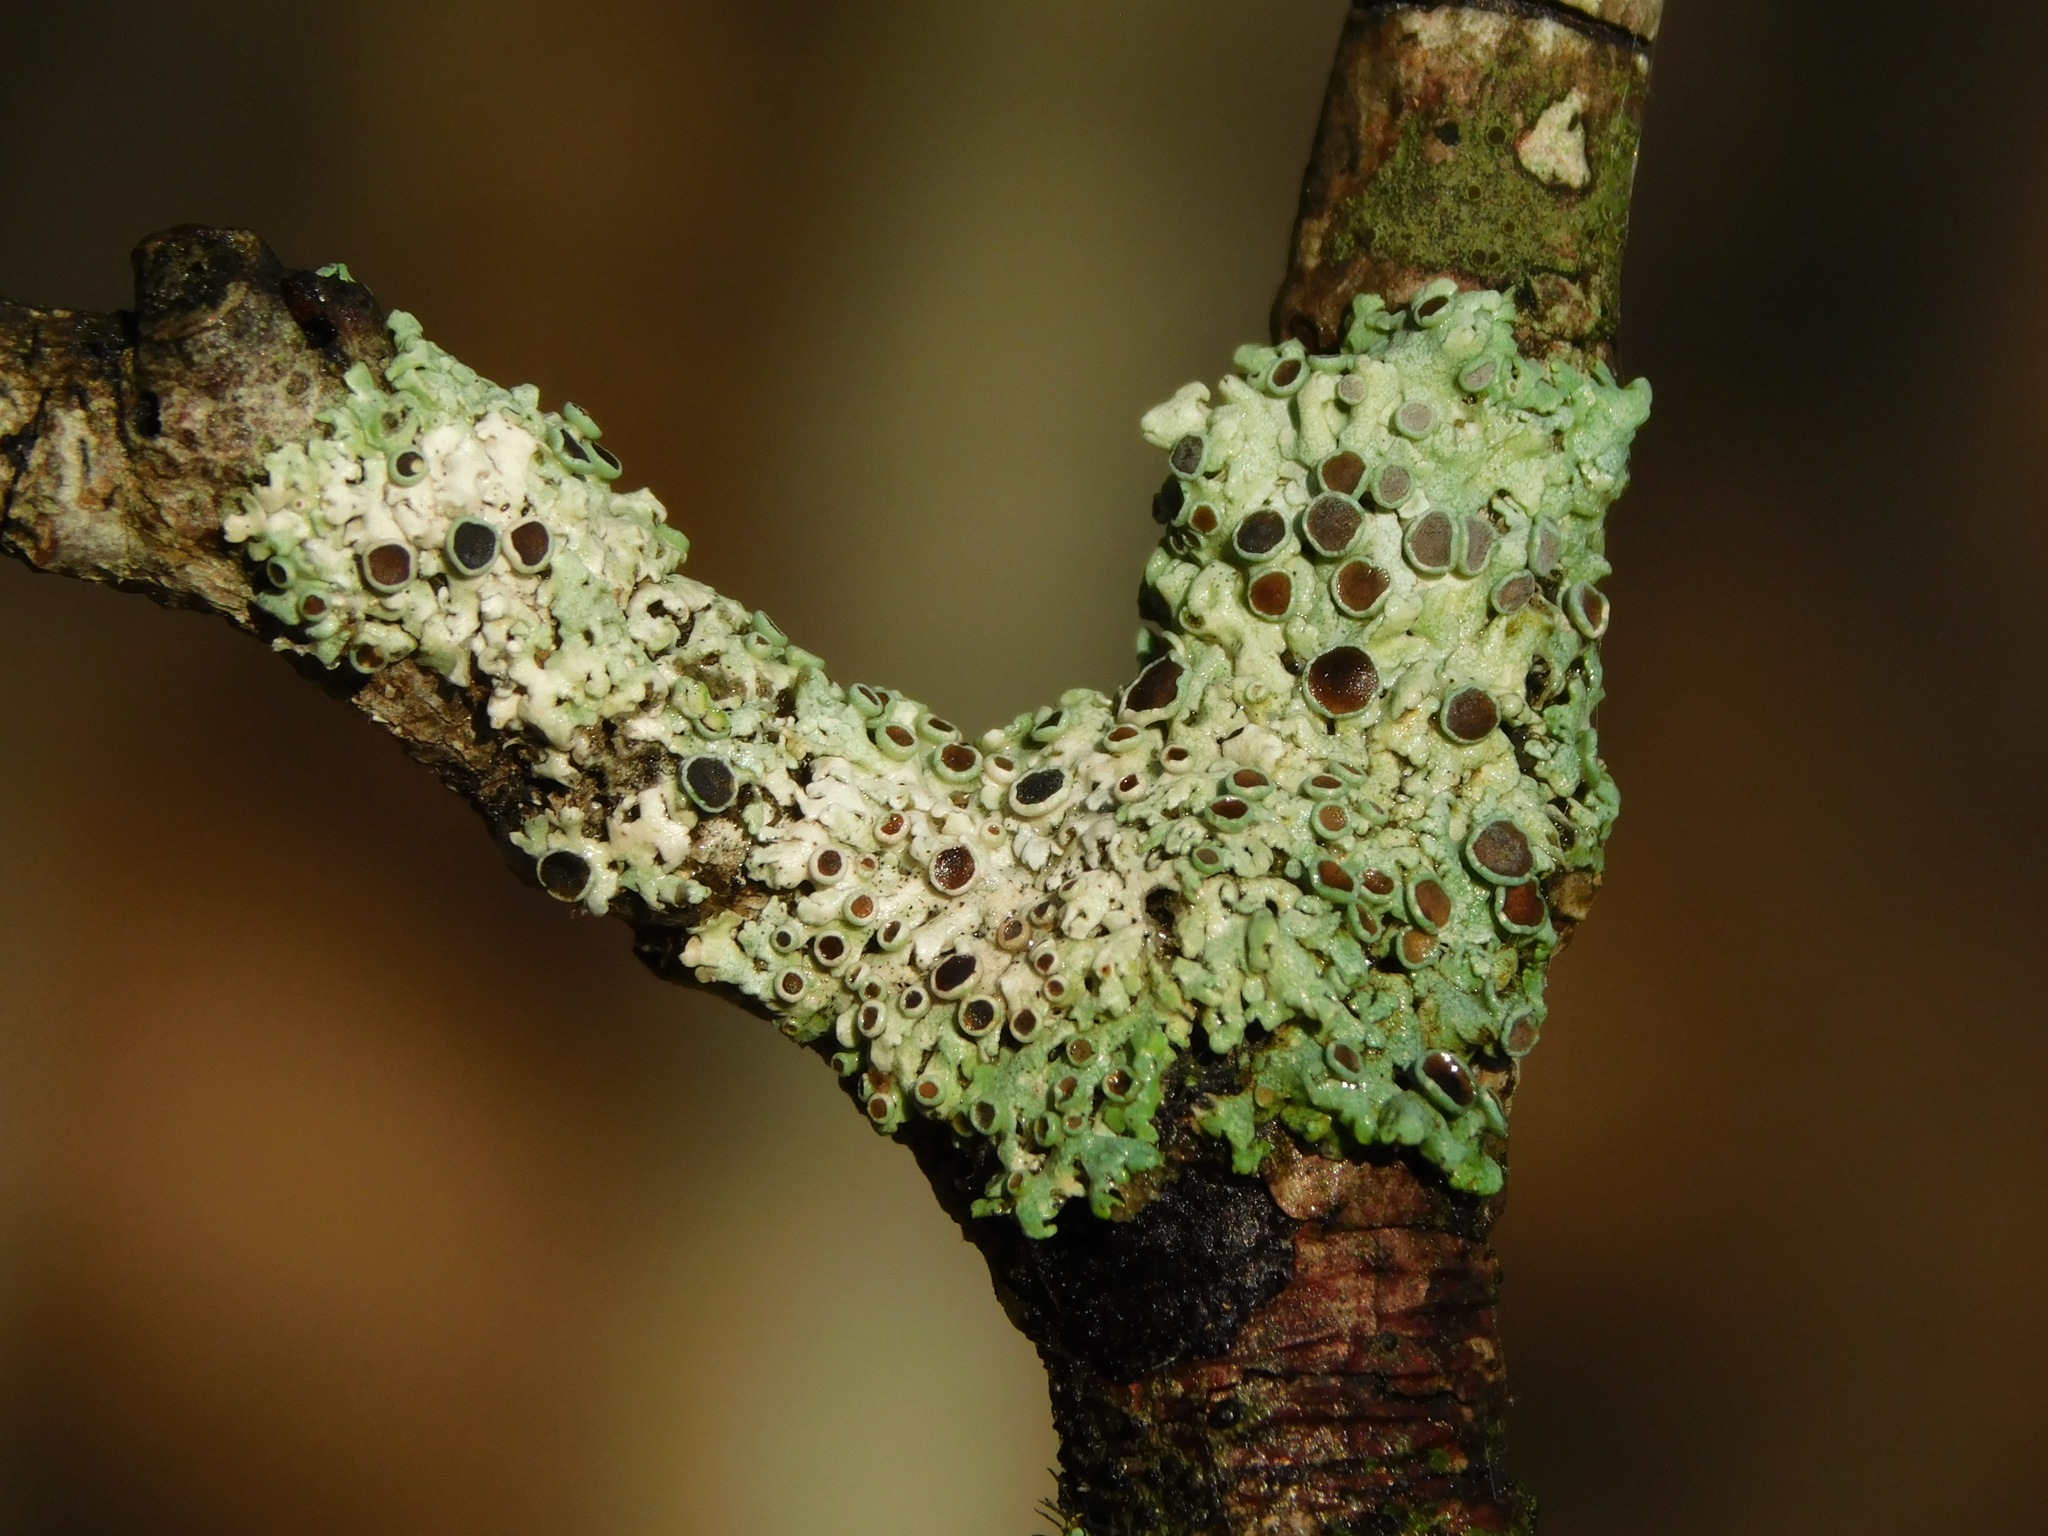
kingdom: Fungi
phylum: Ascomycota
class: Lecanoromycetes
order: Caliciales
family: Physciaceae
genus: Physcia
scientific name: Physcia stellaris
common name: Star rosette lichen
